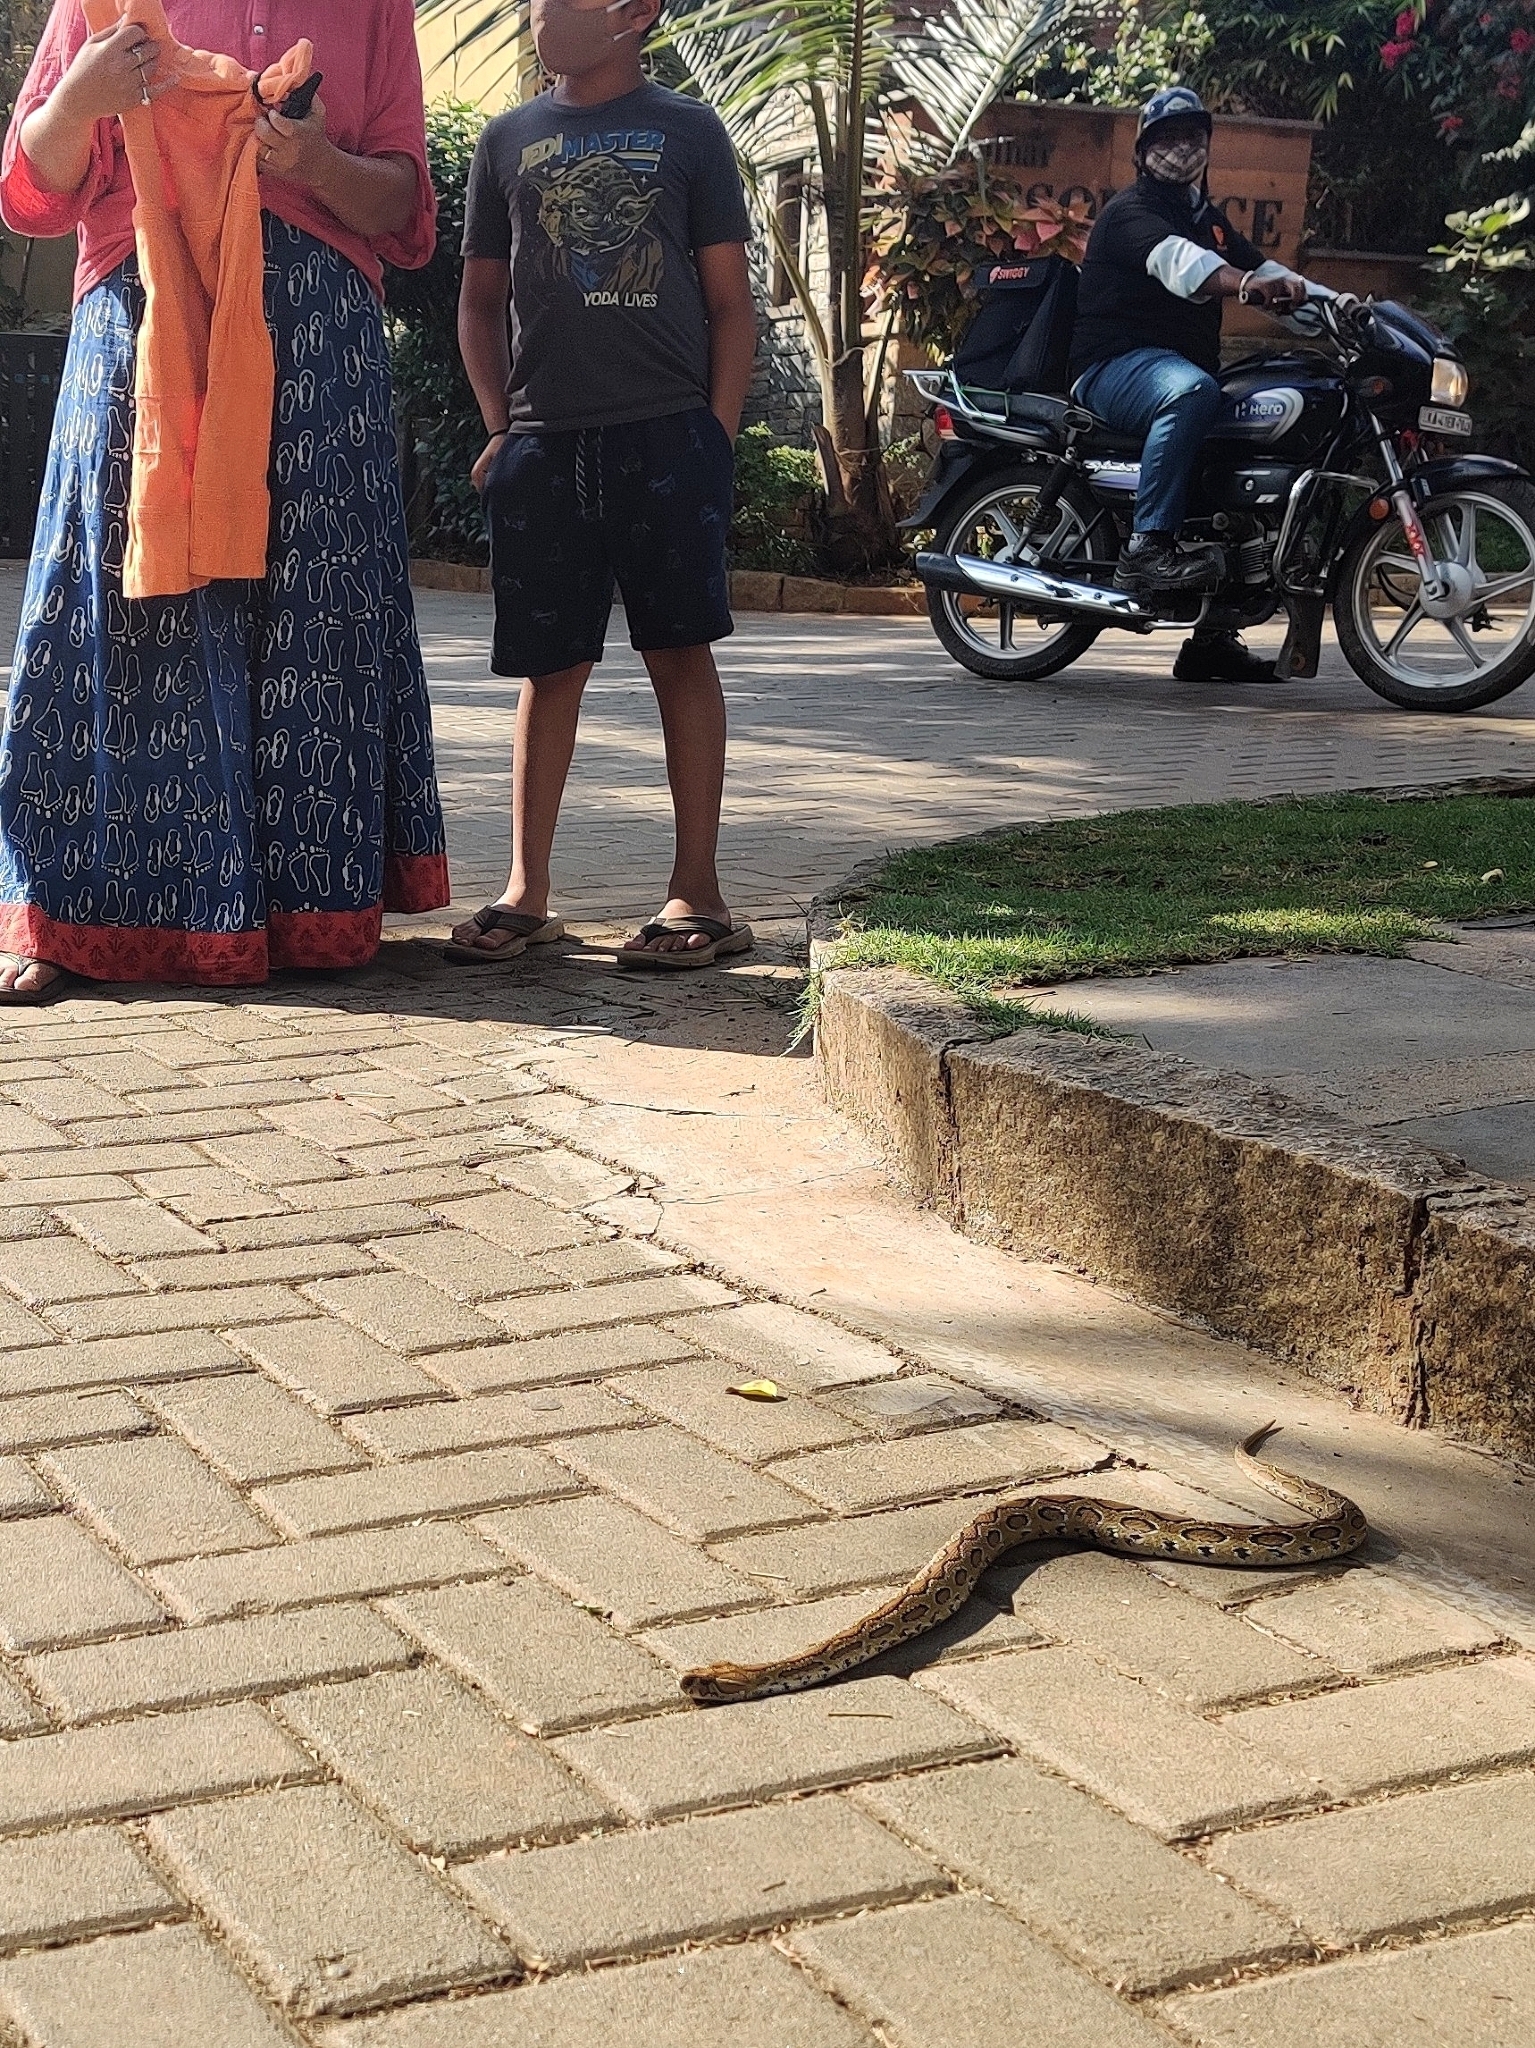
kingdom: Animalia
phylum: Chordata
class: Squamata
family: Viperidae
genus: Daboia
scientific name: Daboia russelii
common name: Western russel’s viper
